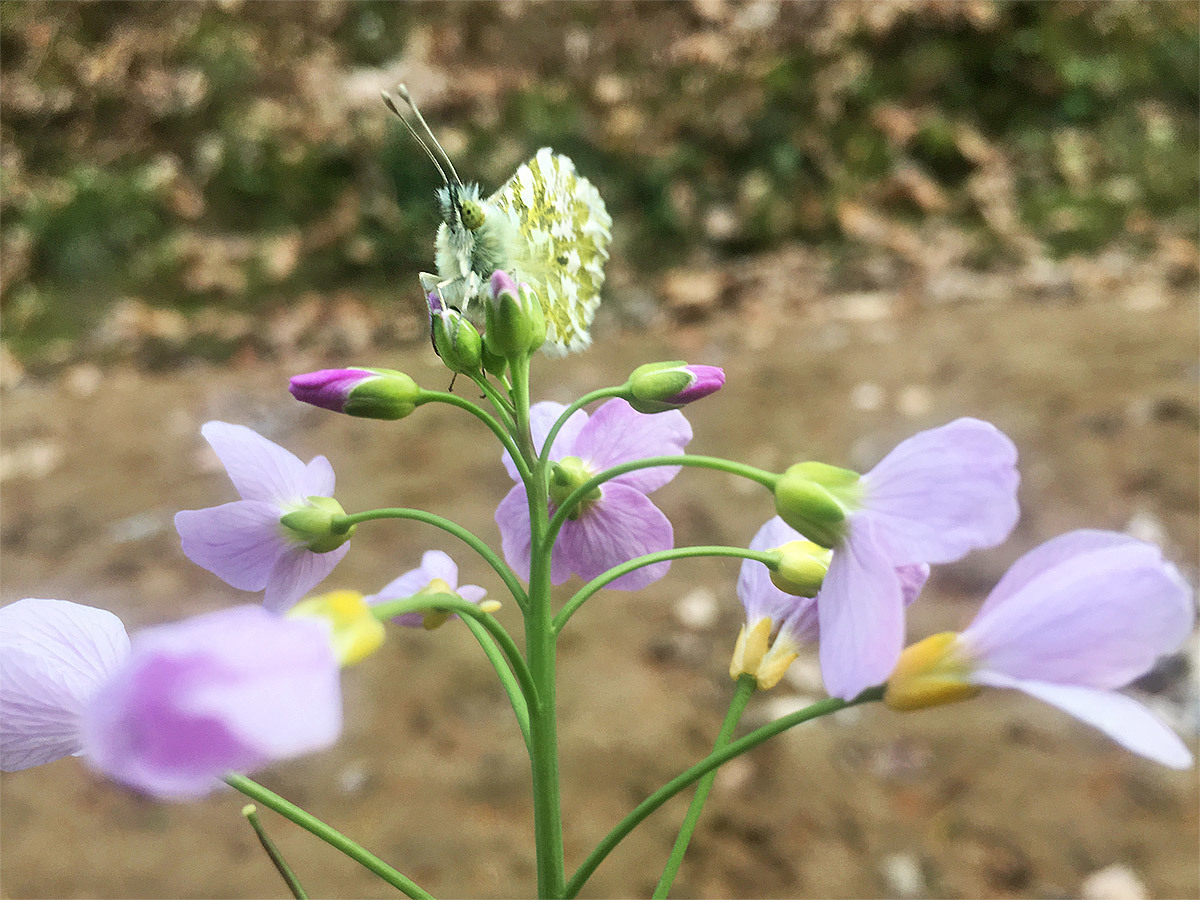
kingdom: Animalia
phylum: Arthropoda
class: Insecta
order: Lepidoptera
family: Pieridae
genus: Anthocharis
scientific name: Anthocharis cardamines
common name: Orange-tip
